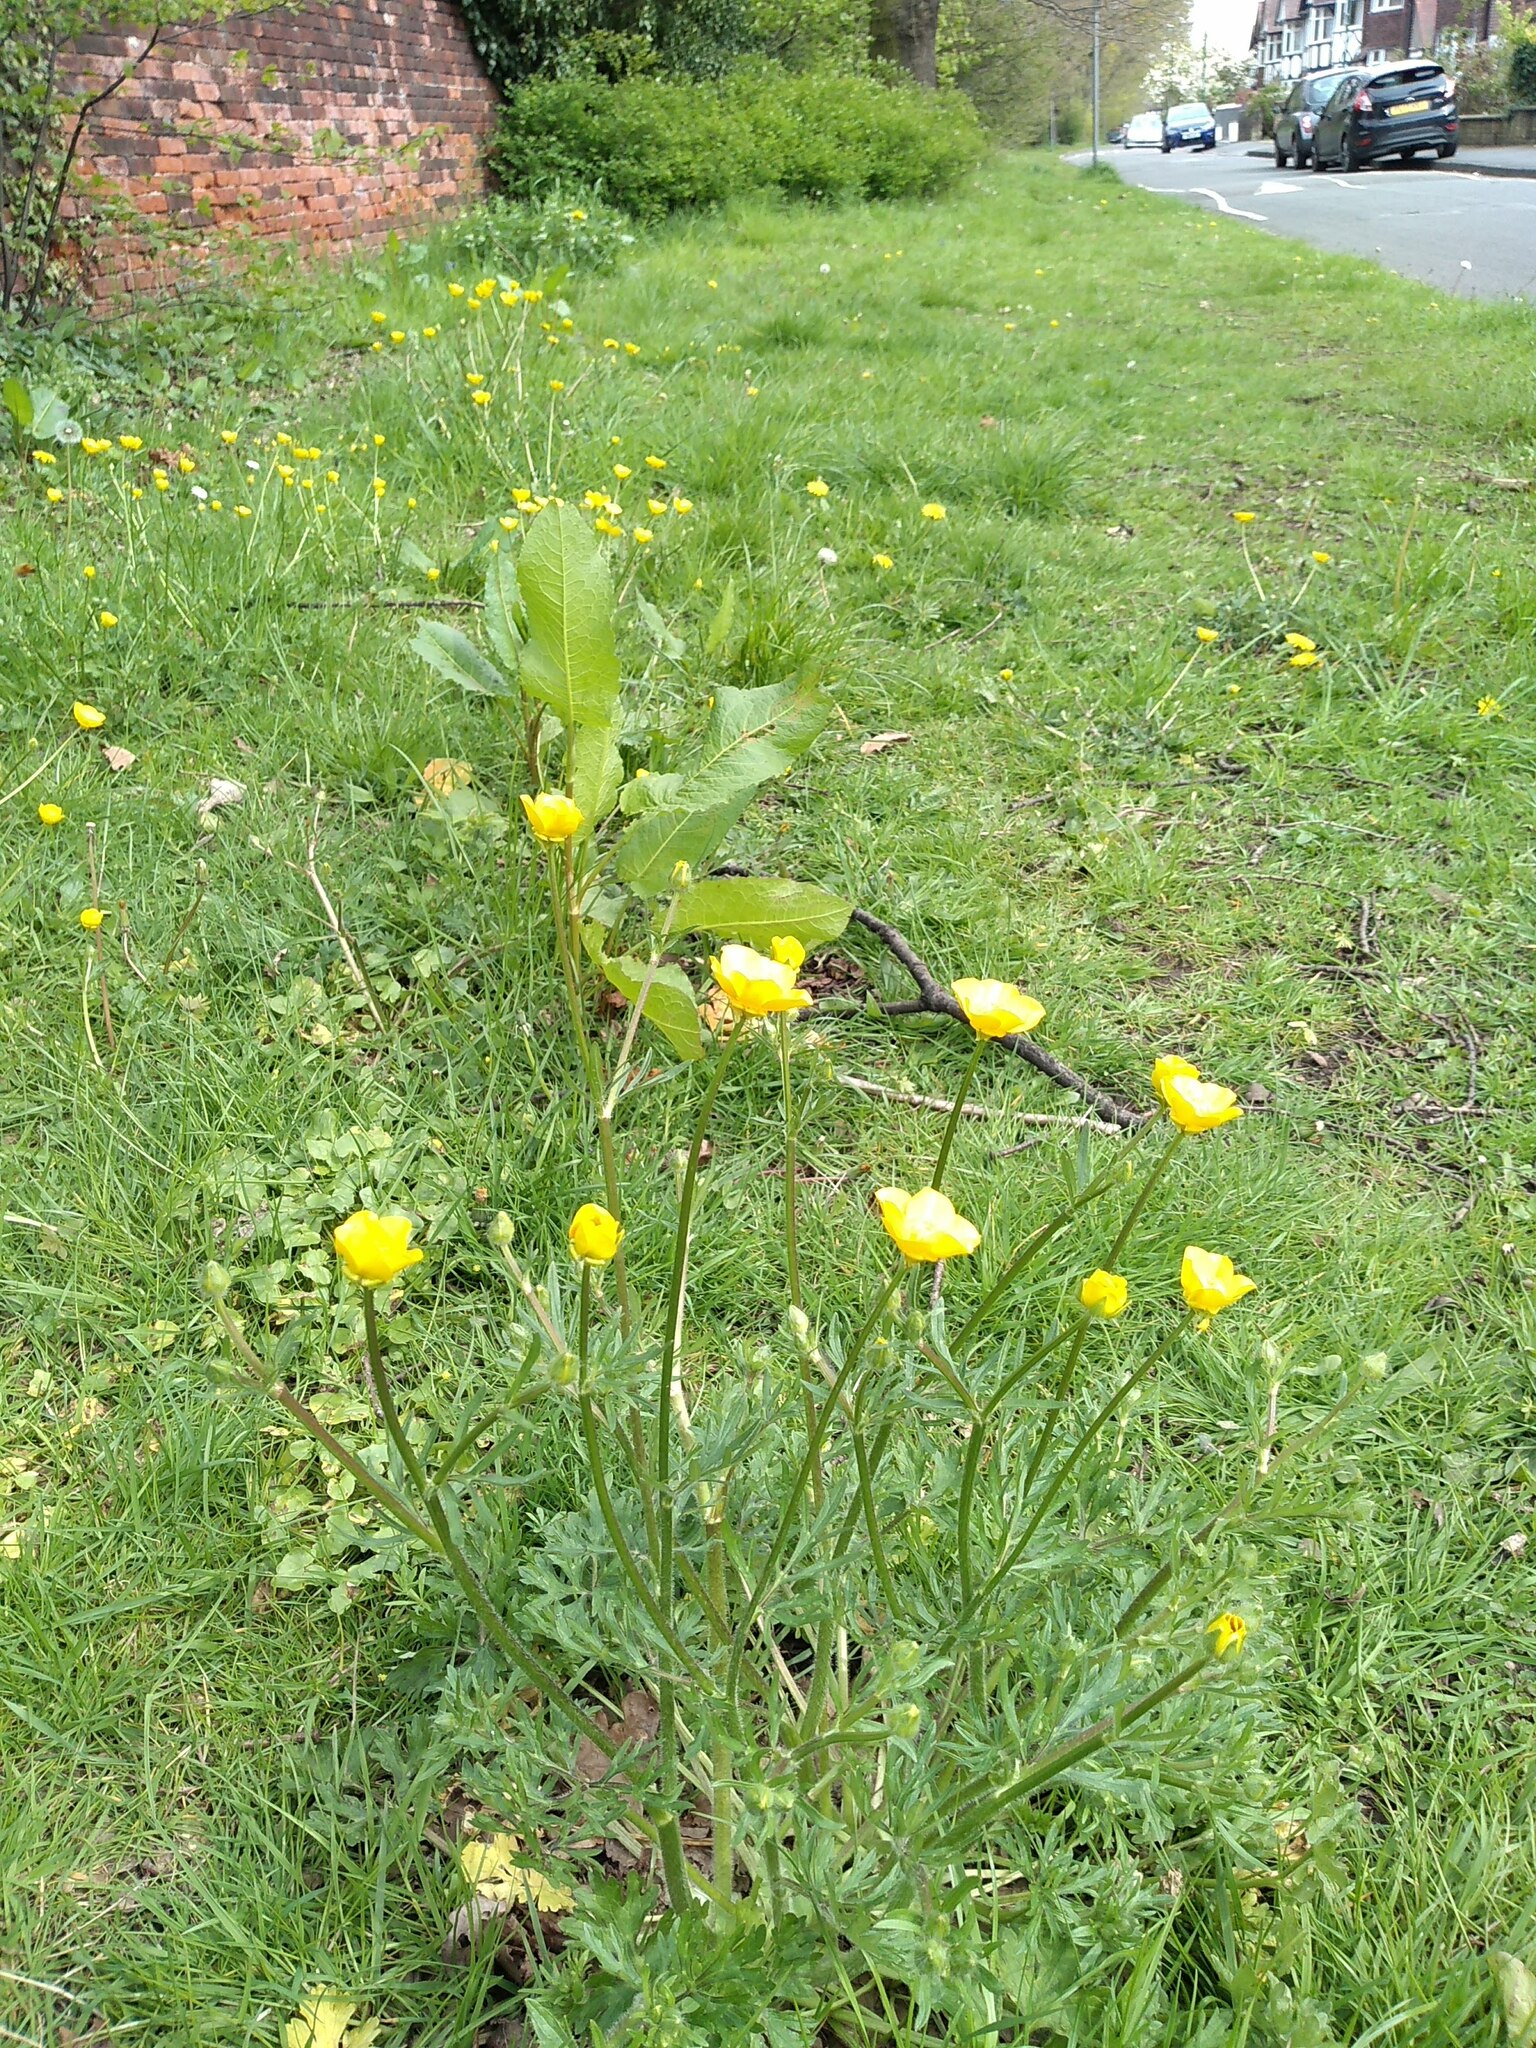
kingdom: Plantae
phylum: Tracheophyta
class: Magnoliopsida
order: Ranunculales
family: Ranunculaceae
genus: Ranunculus
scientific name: Ranunculus bulbosus
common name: Bulbous buttercup
